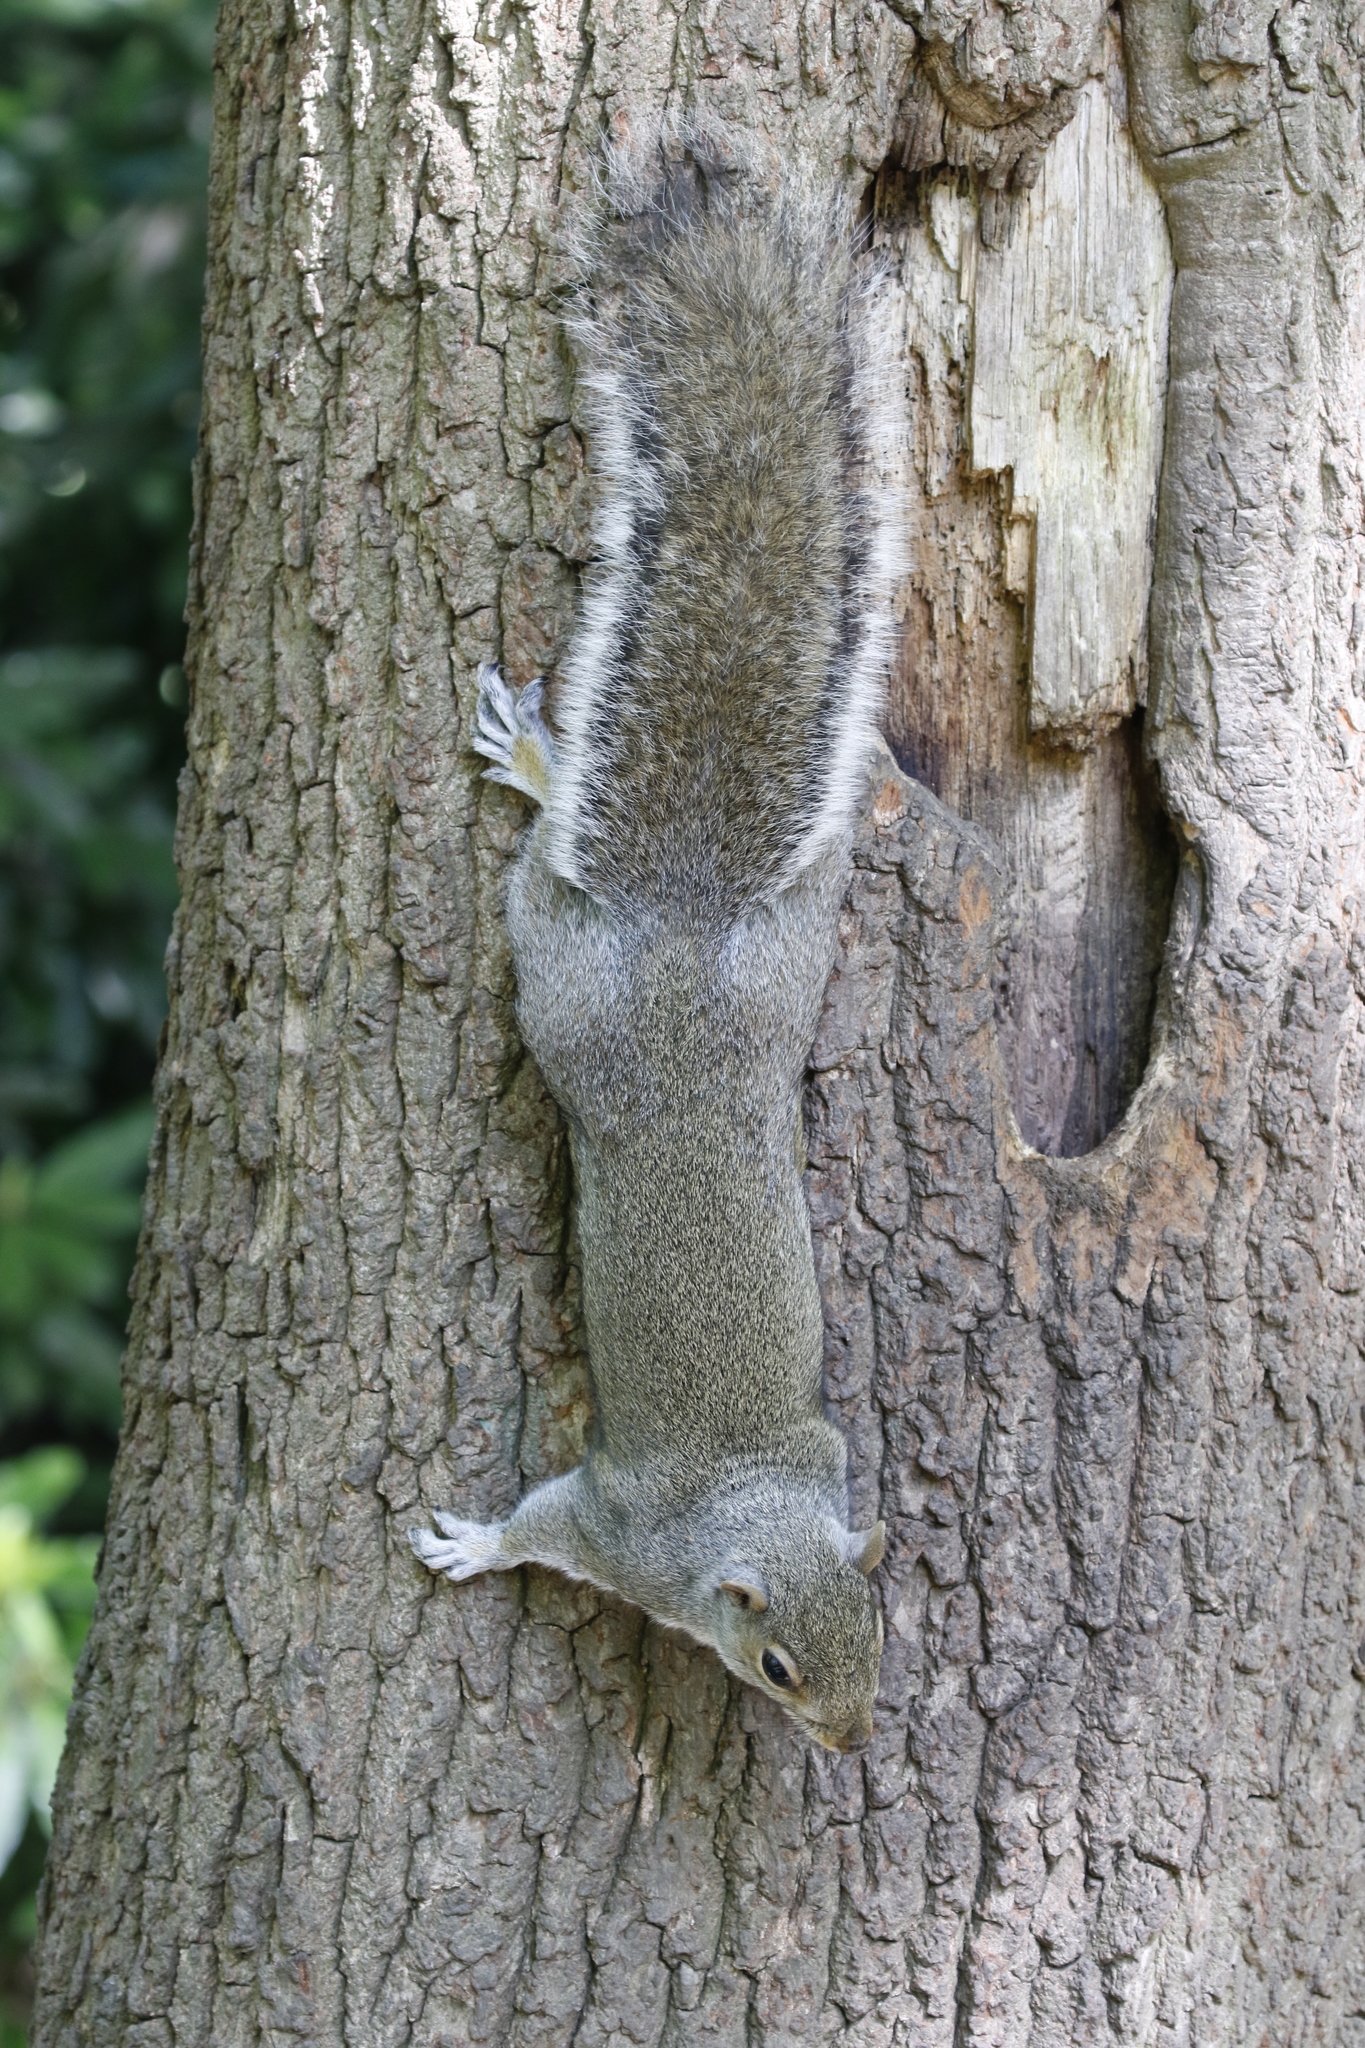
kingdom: Animalia
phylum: Chordata
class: Mammalia
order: Rodentia
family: Sciuridae
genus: Sciurus
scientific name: Sciurus carolinensis
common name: Eastern gray squirrel
